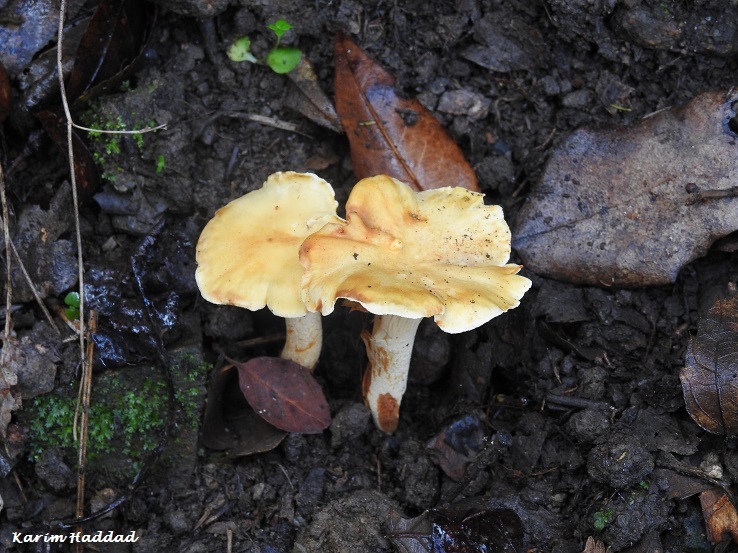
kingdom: Fungi
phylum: Basidiomycota
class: Agaricomycetes
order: Cantharellales
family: Hydnaceae
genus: Cantharellus
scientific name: Cantharellus alborufescens
